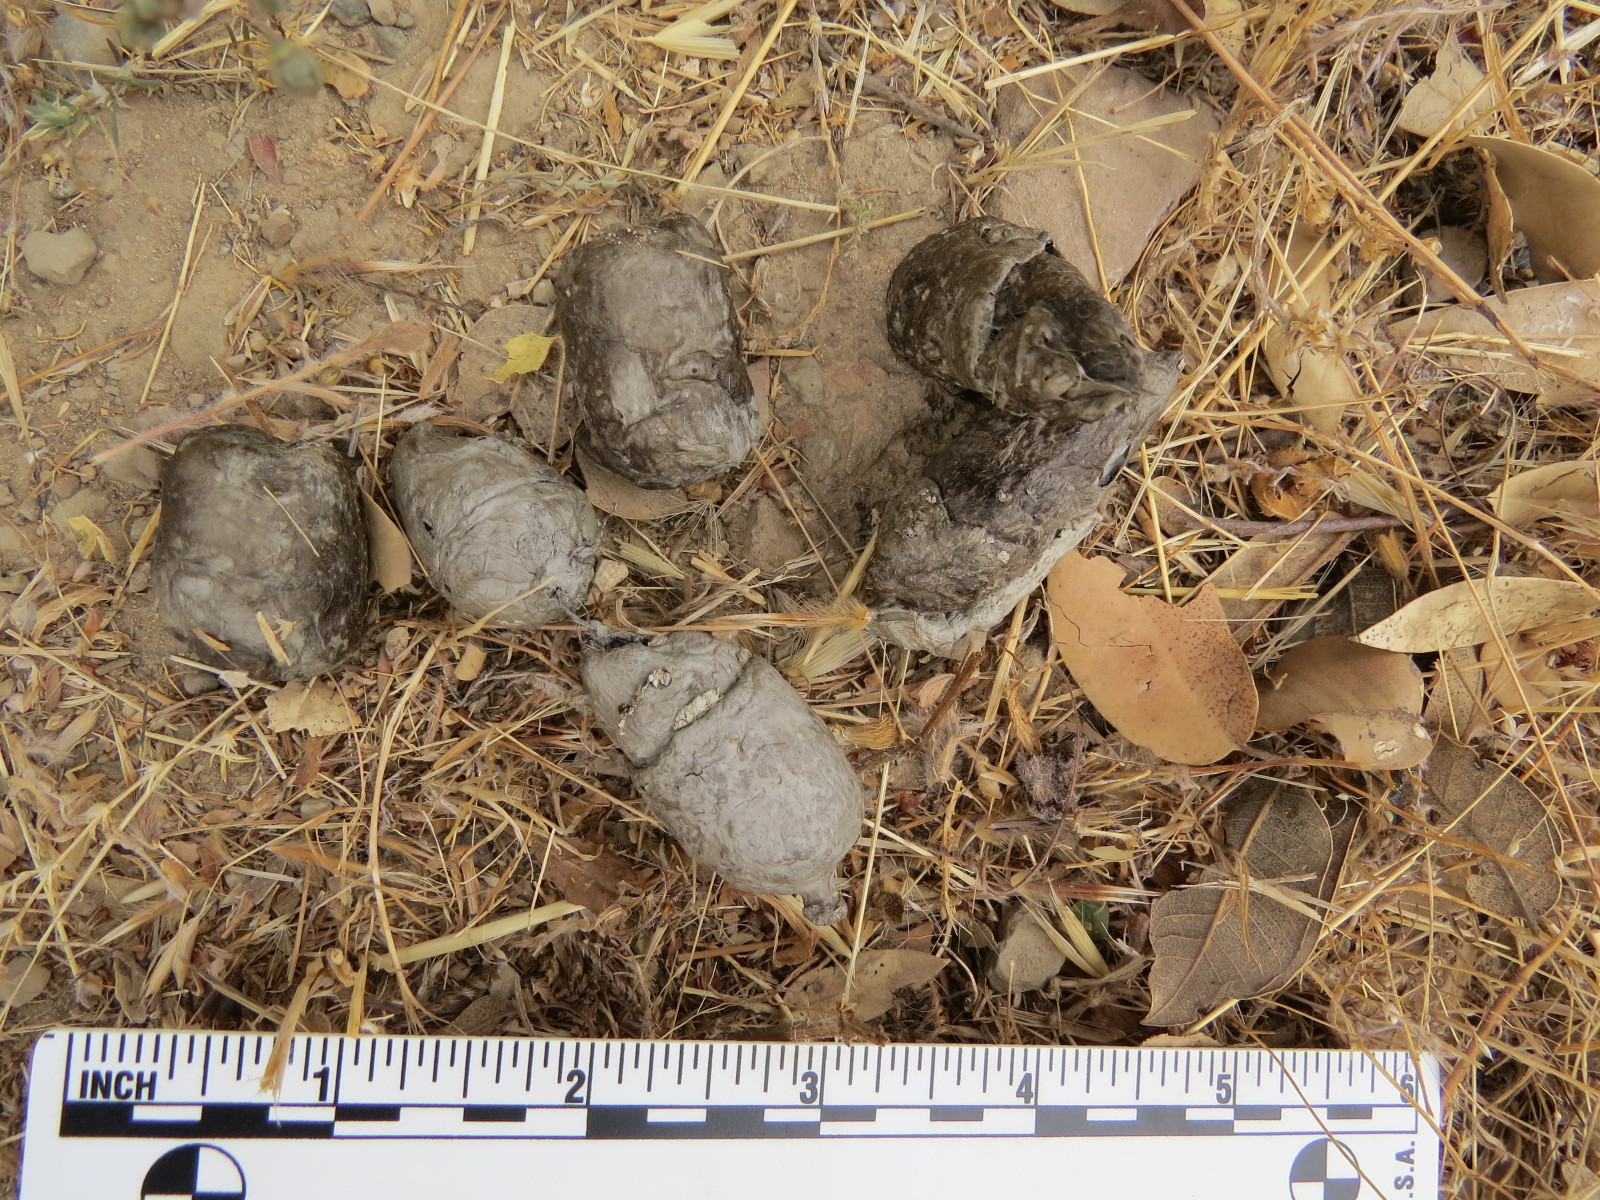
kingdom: Animalia
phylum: Chordata
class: Mammalia
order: Carnivora
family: Felidae
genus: Lynx
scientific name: Lynx rufus
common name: Bobcat
